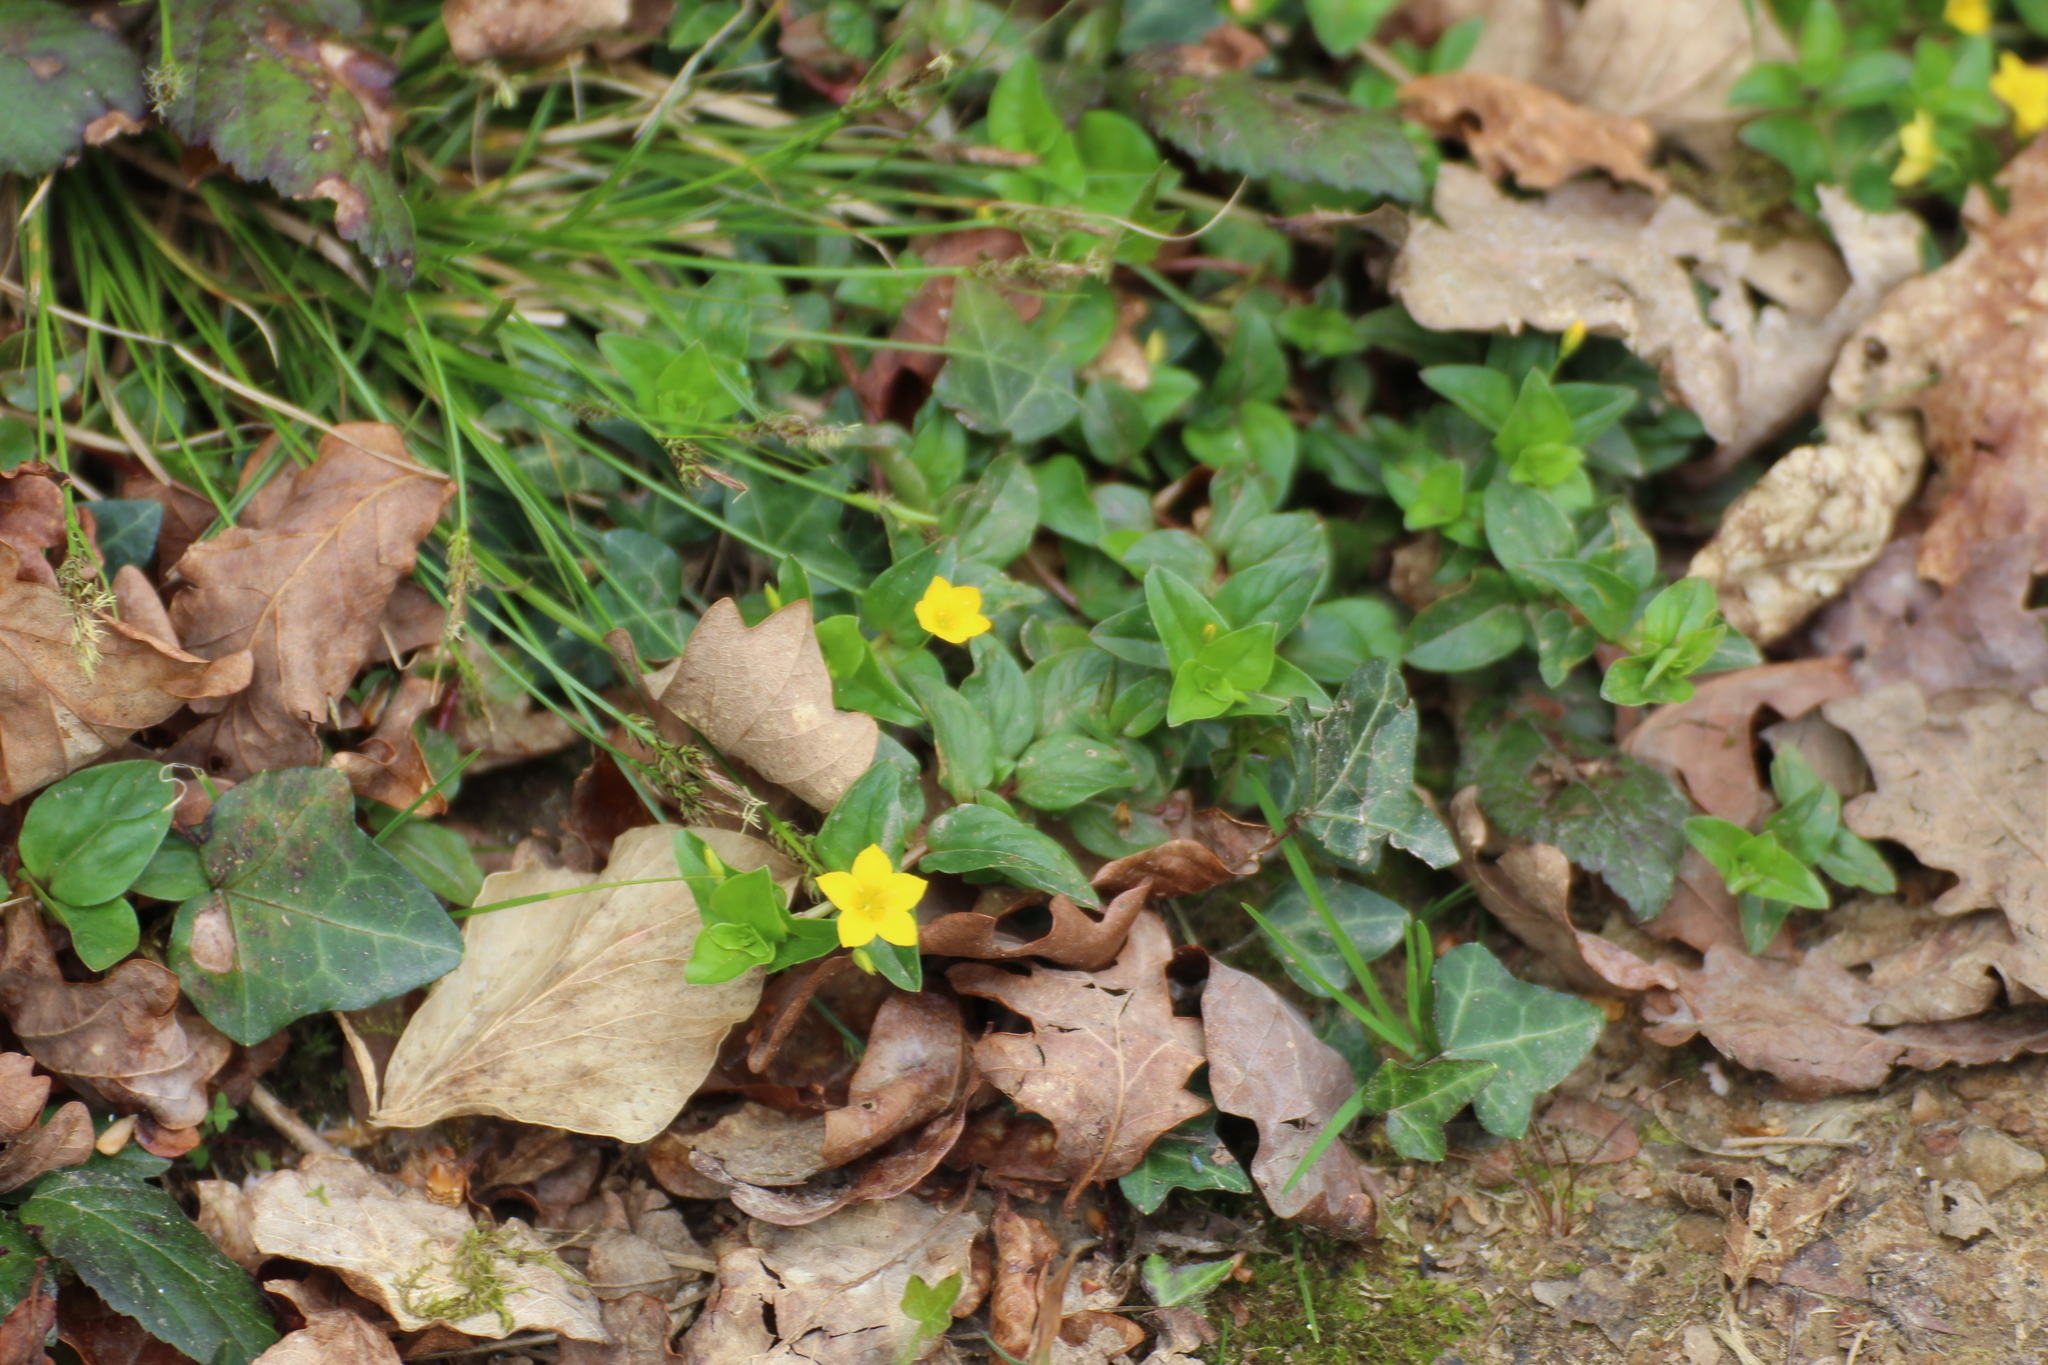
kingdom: Plantae
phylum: Tracheophyta
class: Magnoliopsida
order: Ericales
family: Primulaceae
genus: Lysimachia
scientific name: Lysimachia nemorum
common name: Yellow pimpernel
